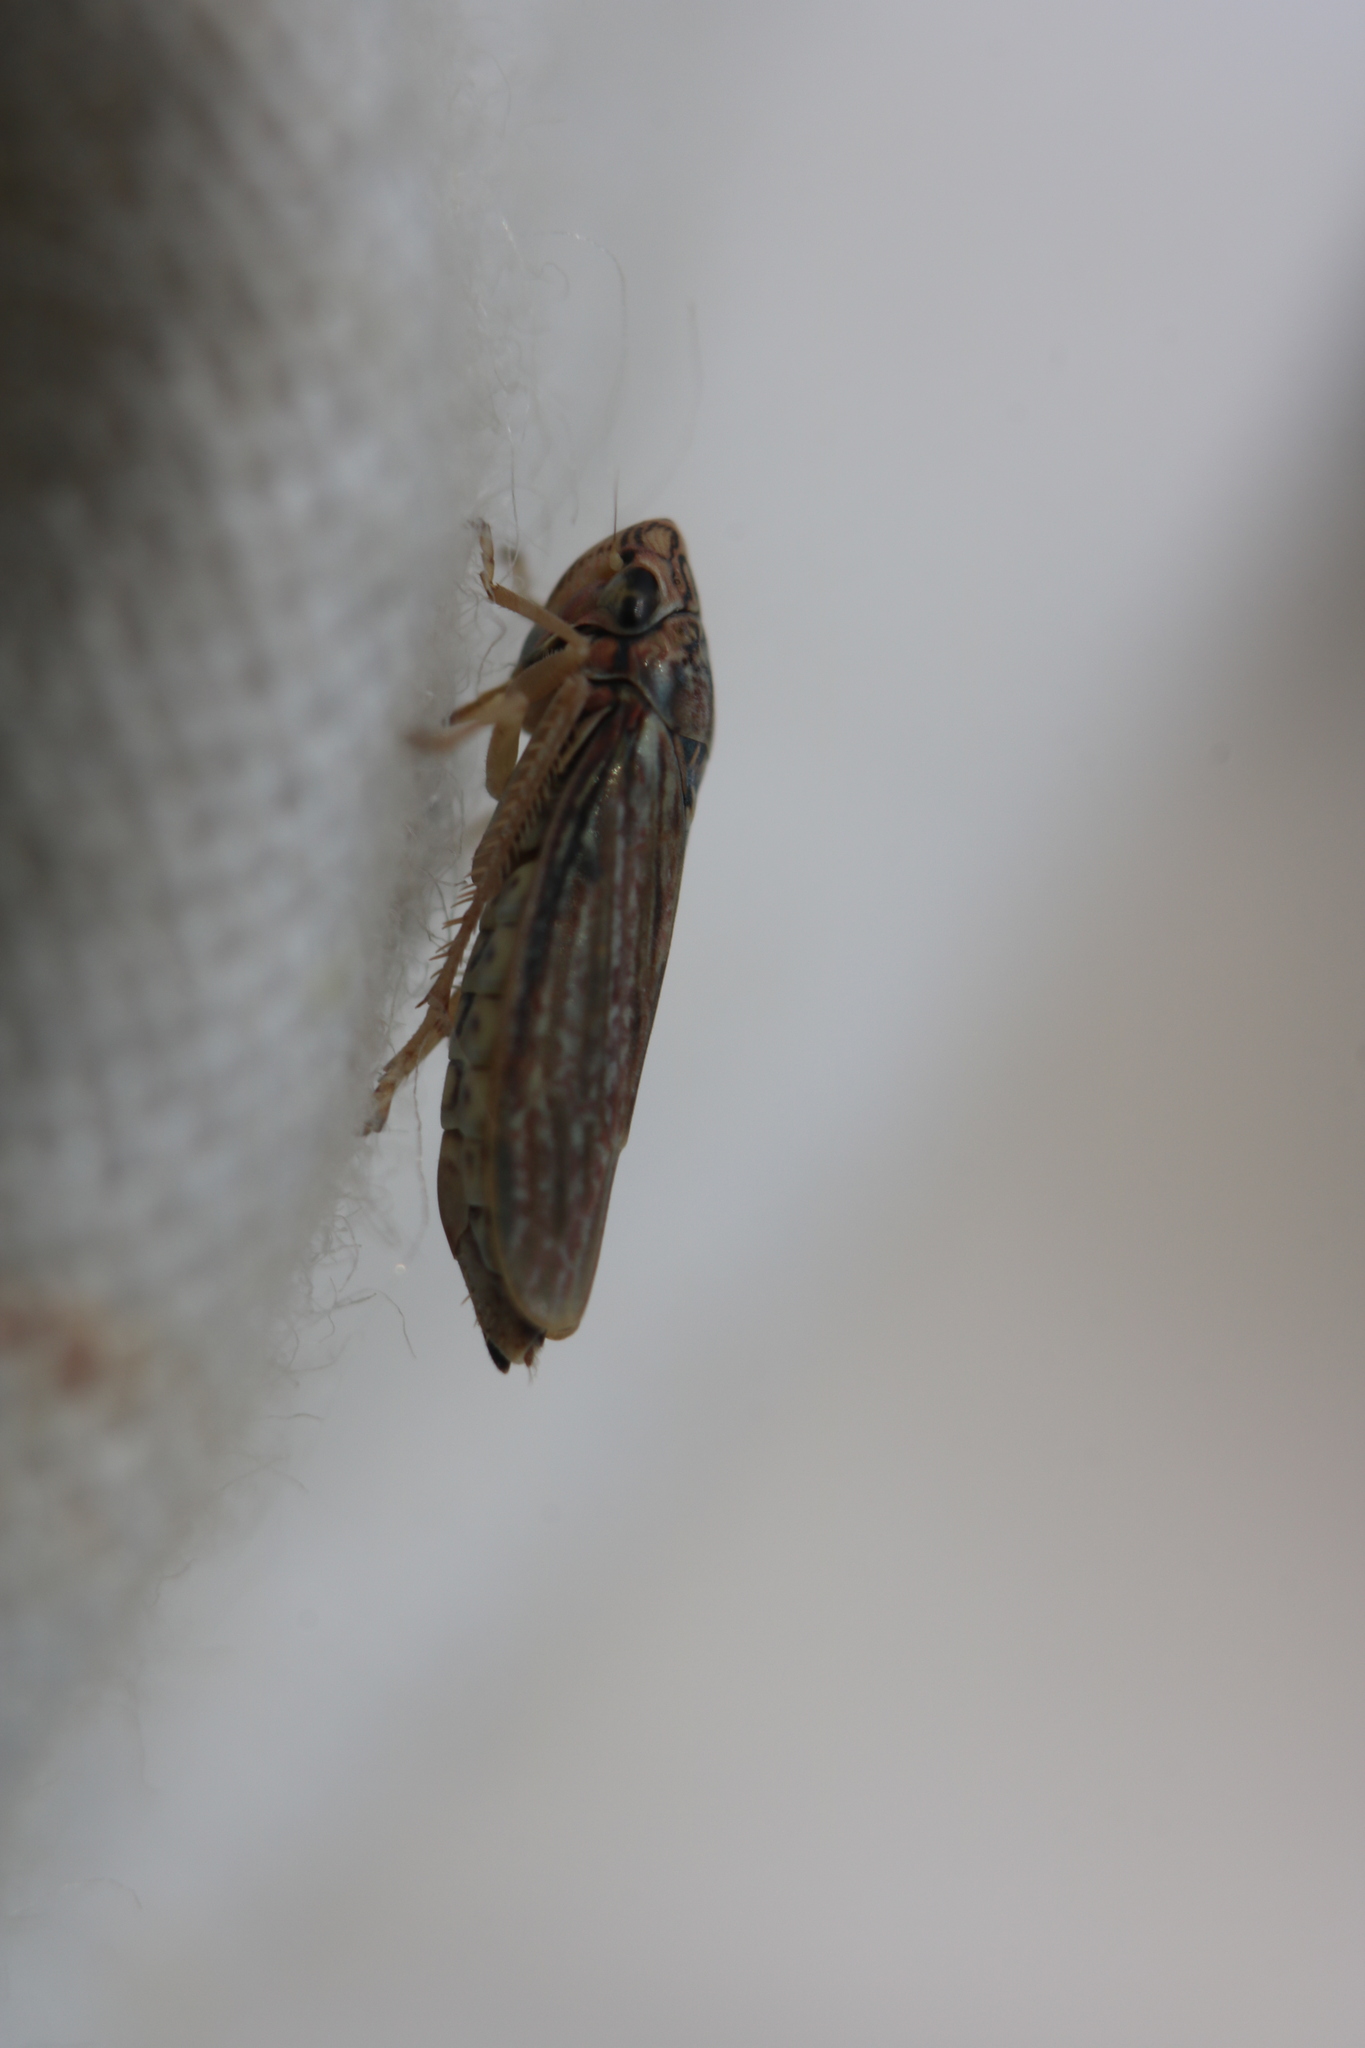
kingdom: Animalia
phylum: Arthropoda
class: Insecta
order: Hemiptera
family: Cicadellidae
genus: Neokolla
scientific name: Neokolla hieroglyphica
